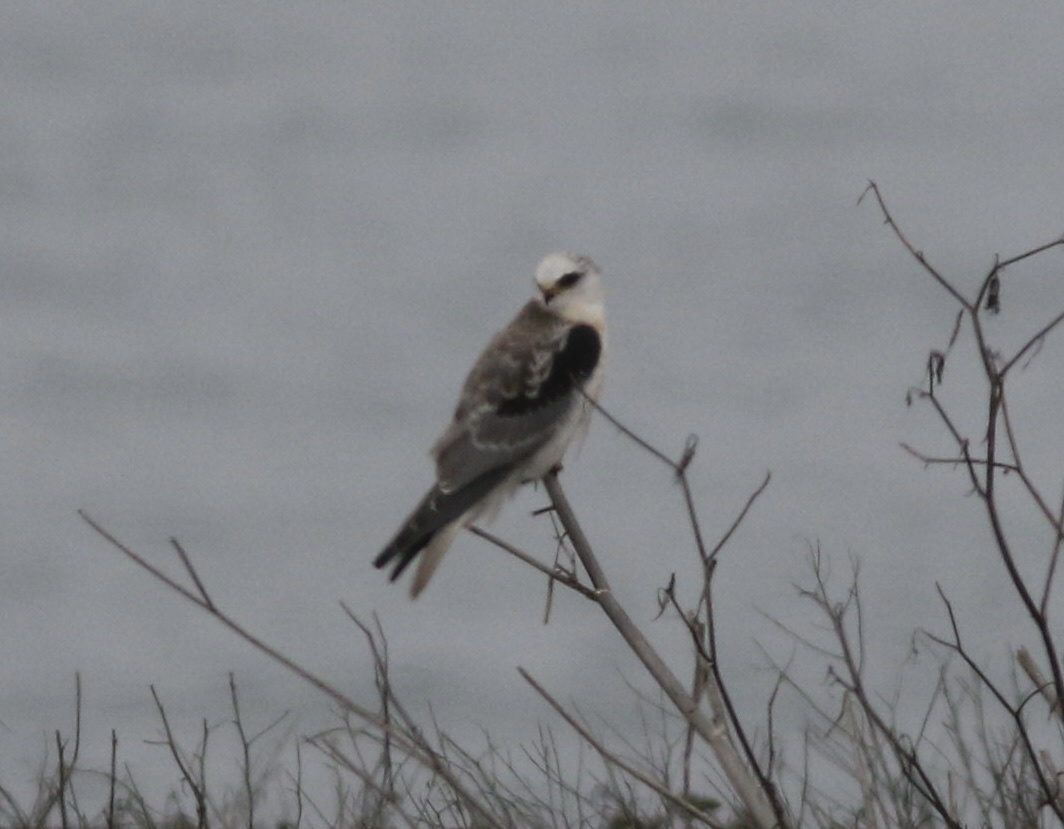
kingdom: Animalia
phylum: Chordata
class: Aves
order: Accipitriformes
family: Accipitridae
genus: Elanus
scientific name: Elanus leucurus
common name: White-tailed kite
